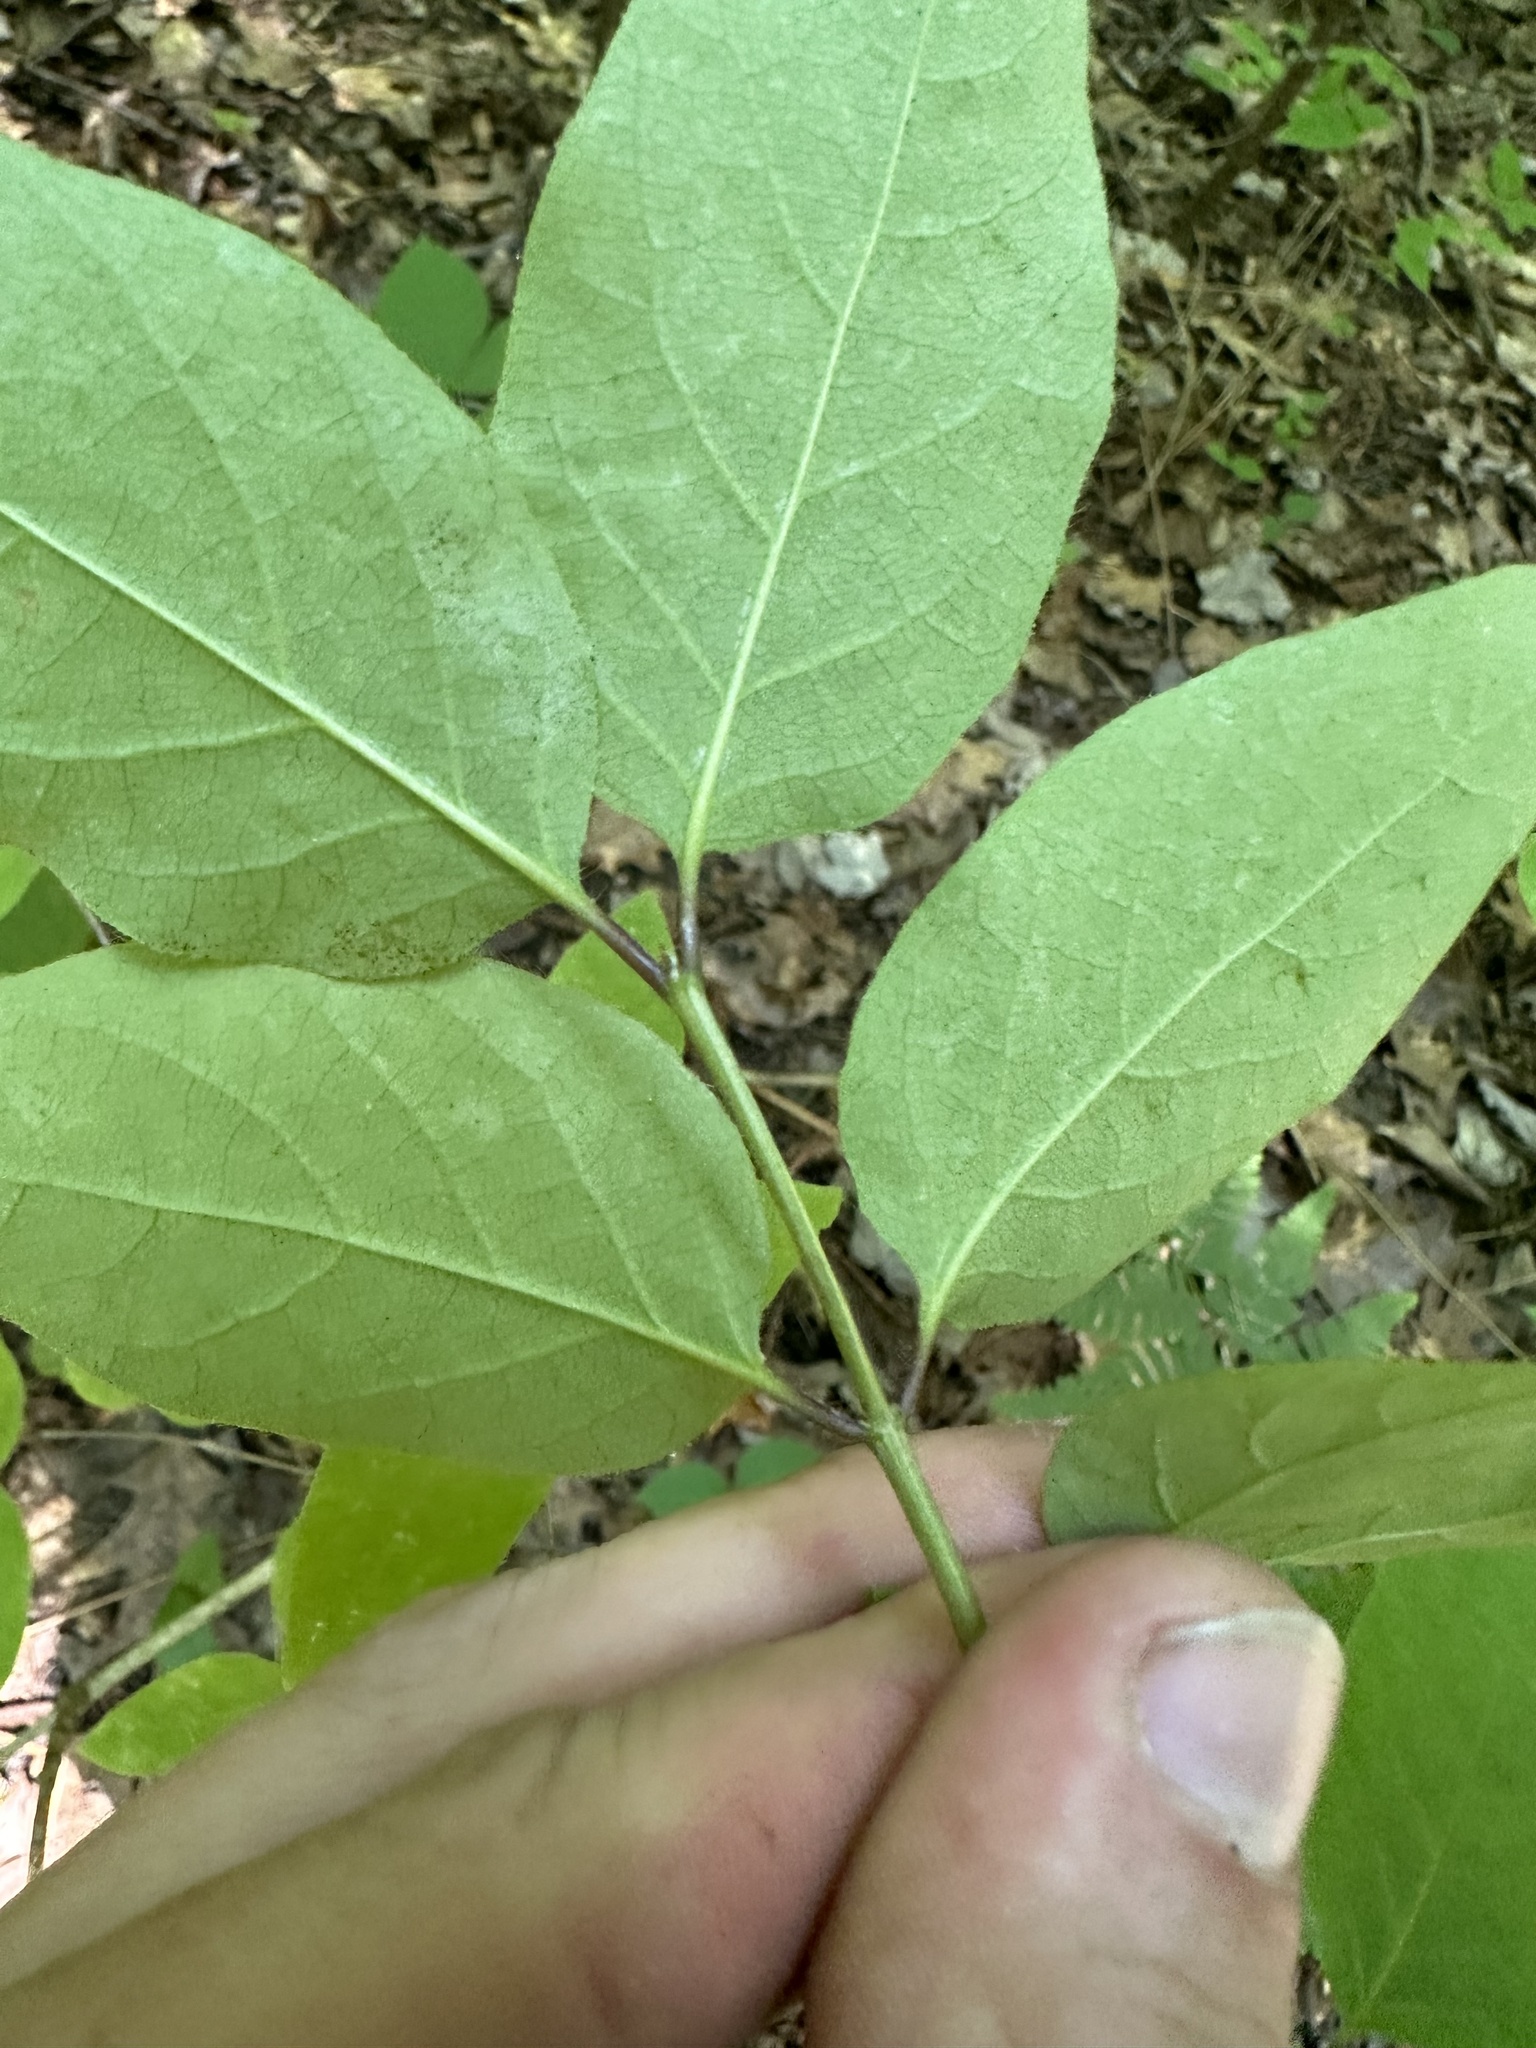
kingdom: Plantae
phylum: Tracheophyta
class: Magnoliopsida
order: Dipsacales
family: Caprifoliaceae
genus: Lonicera
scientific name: Lonicera canadensis
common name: American fly-honeysuckle
